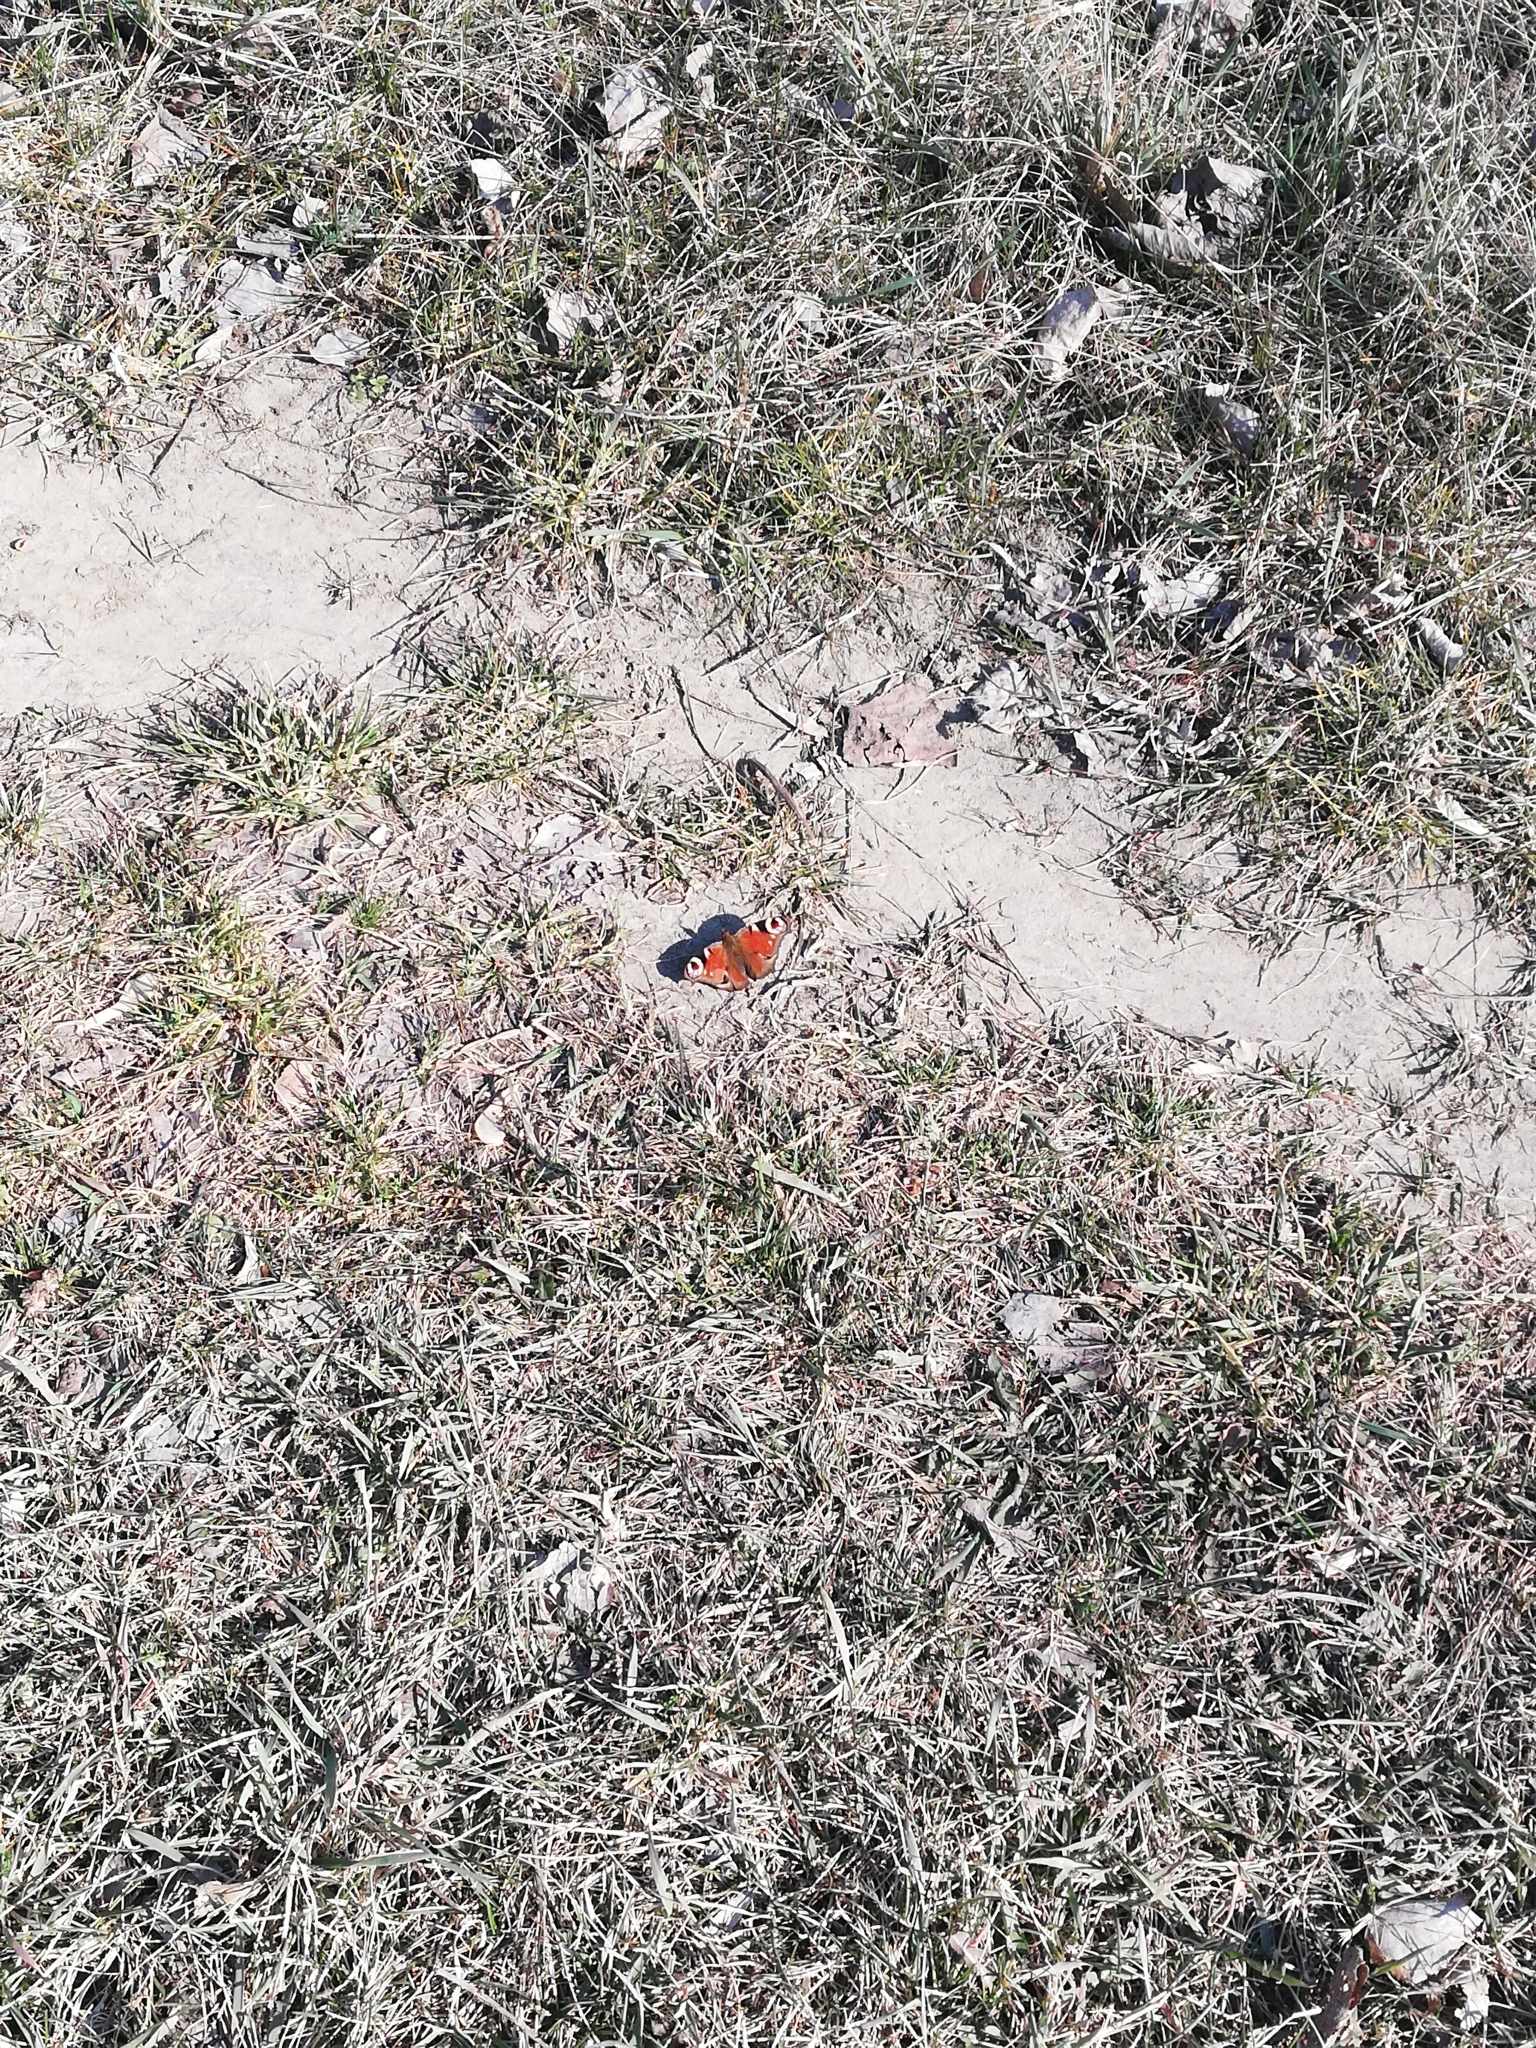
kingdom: Animalia
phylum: Arthropoda
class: Insecta
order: Lepidoptera
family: Nymphalidae
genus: Aglais
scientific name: Aglais io
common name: Peacock
